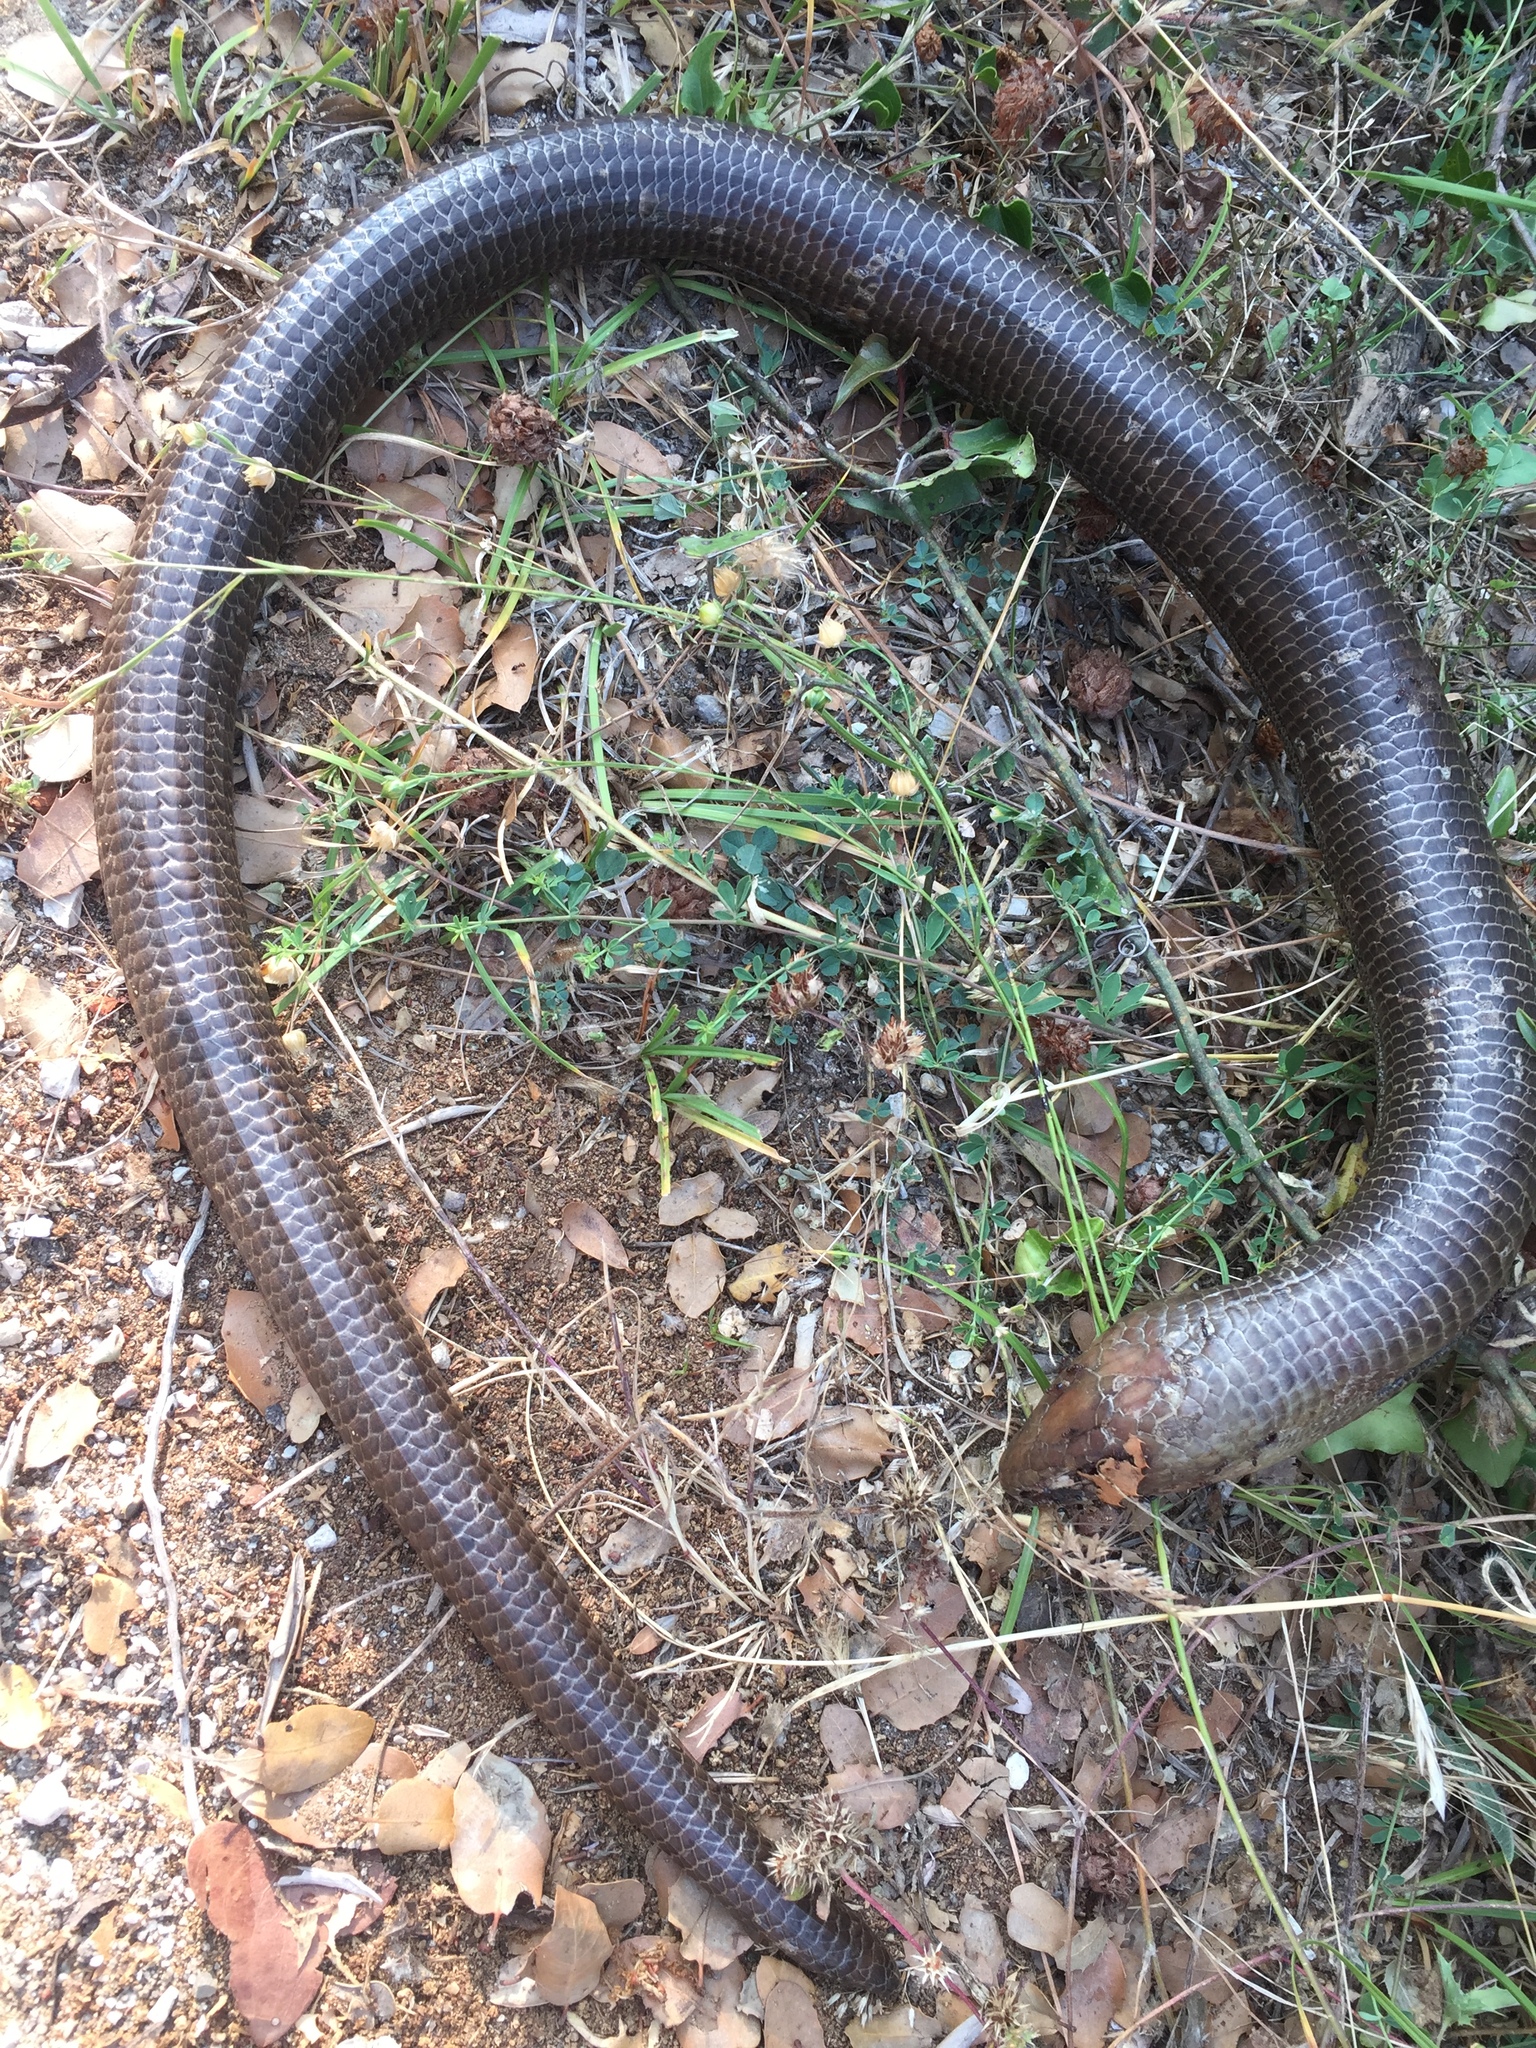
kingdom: Animalia
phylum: Chordata
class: Squamata
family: Anguidae
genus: Pseudopus
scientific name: Pseudopus apodus
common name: European glass lizard
